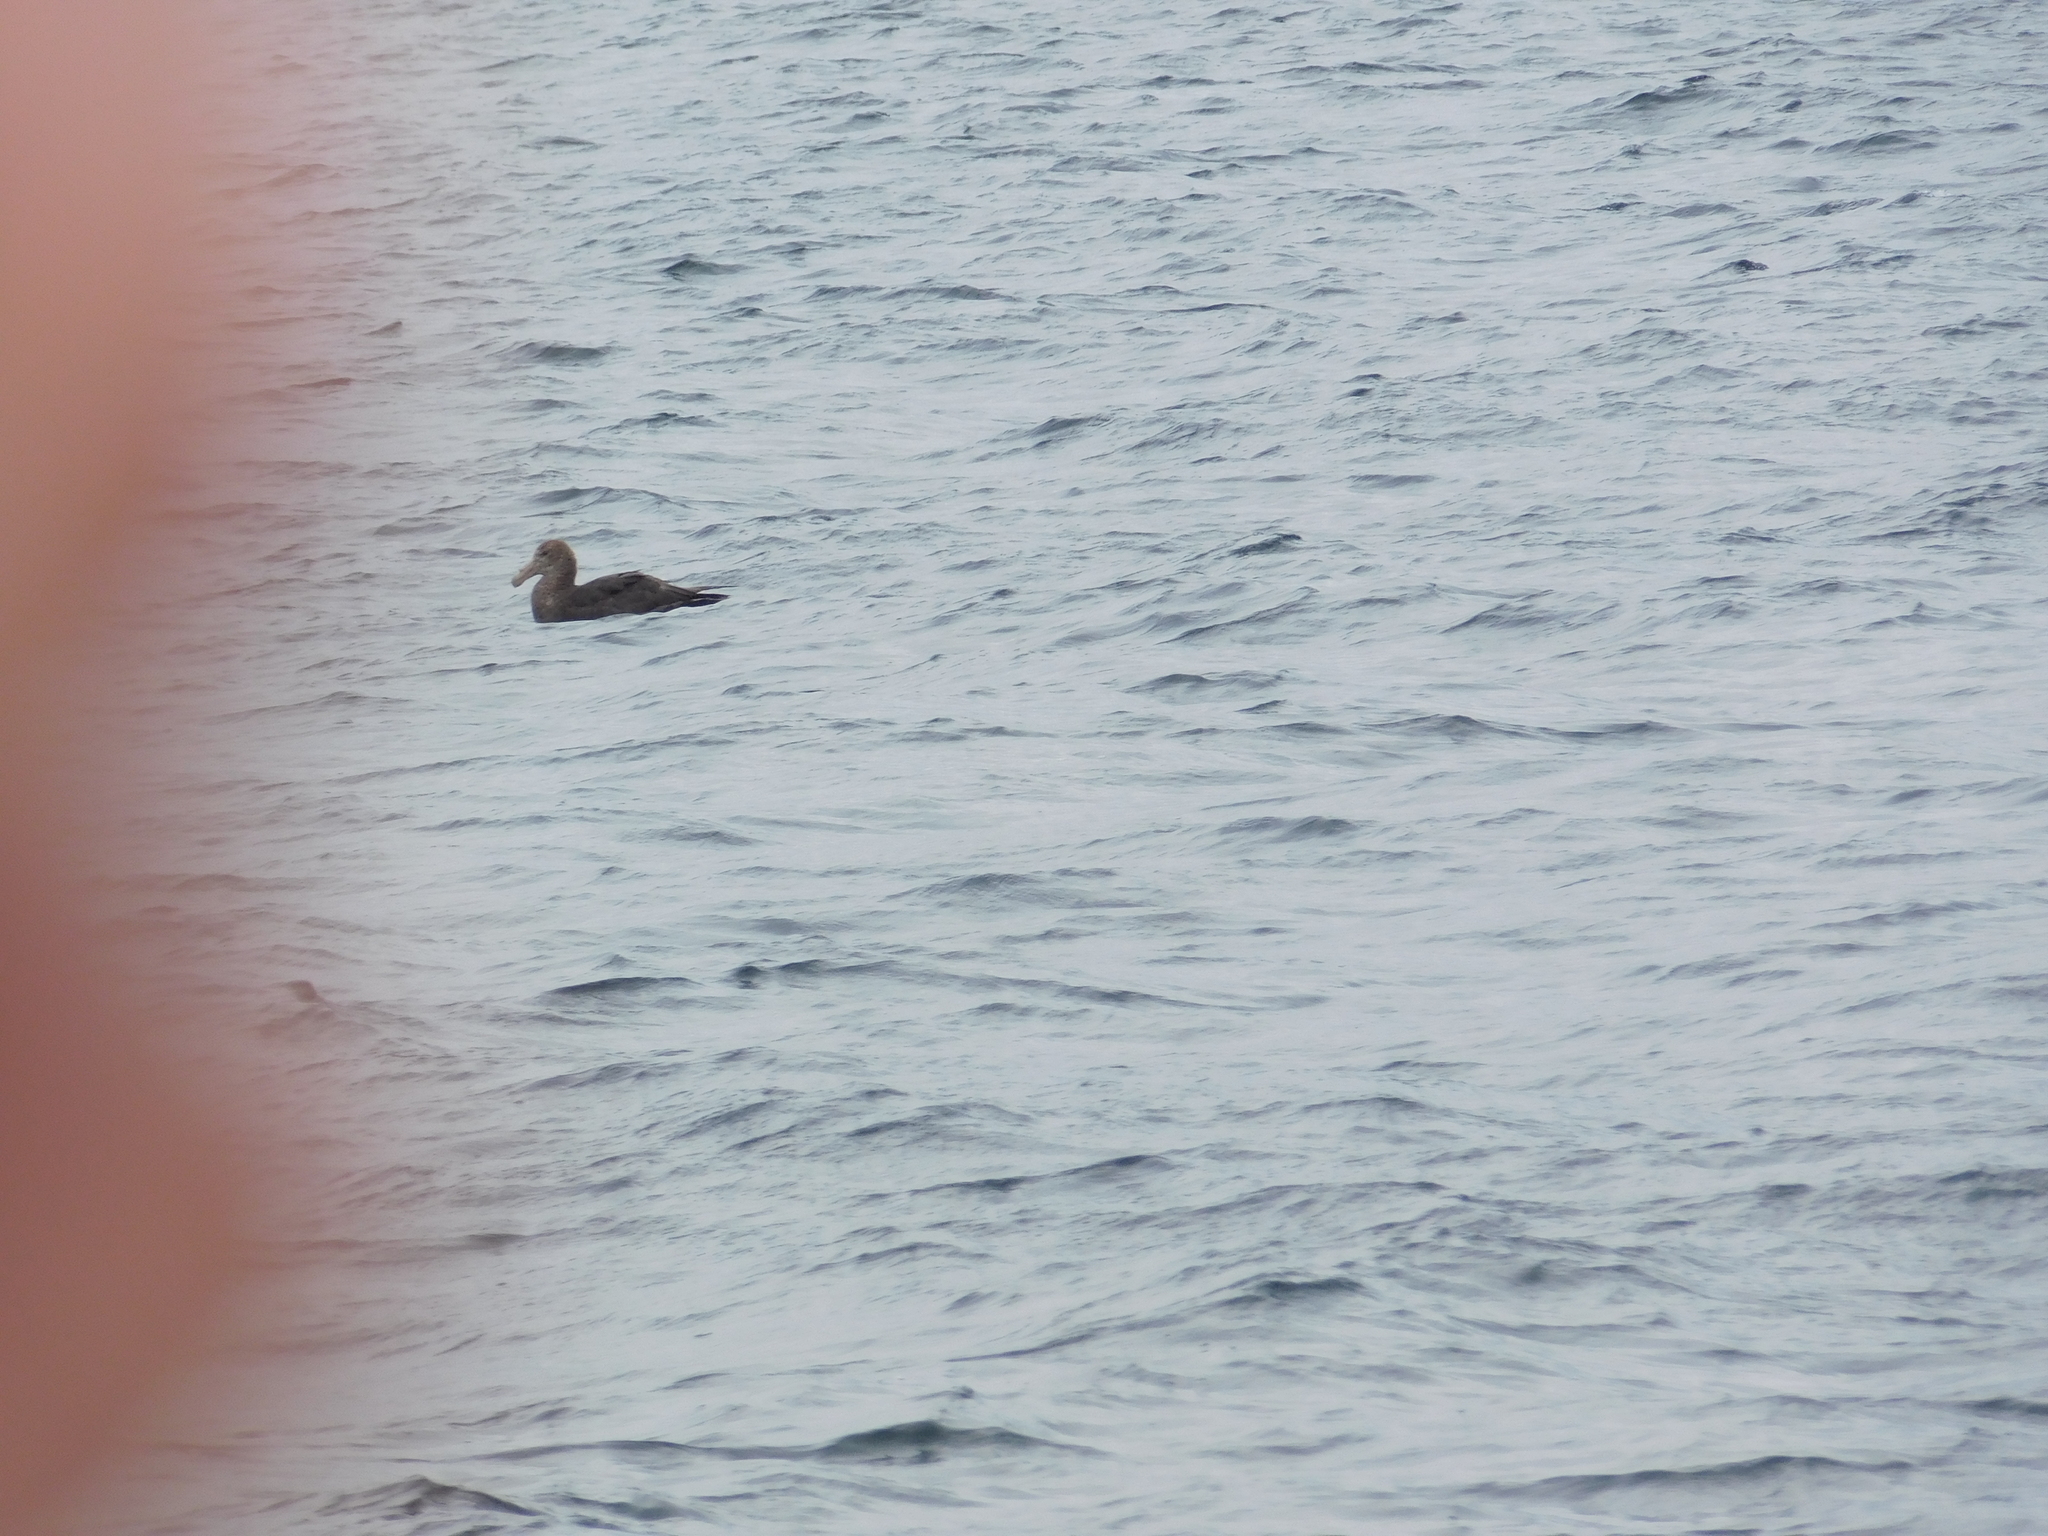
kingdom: Animalia
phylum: Chordata
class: Aves
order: Procellariiformes
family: Procellariidae
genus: Macronectes
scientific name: Macronectes giganteus
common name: Southern giant petrel
